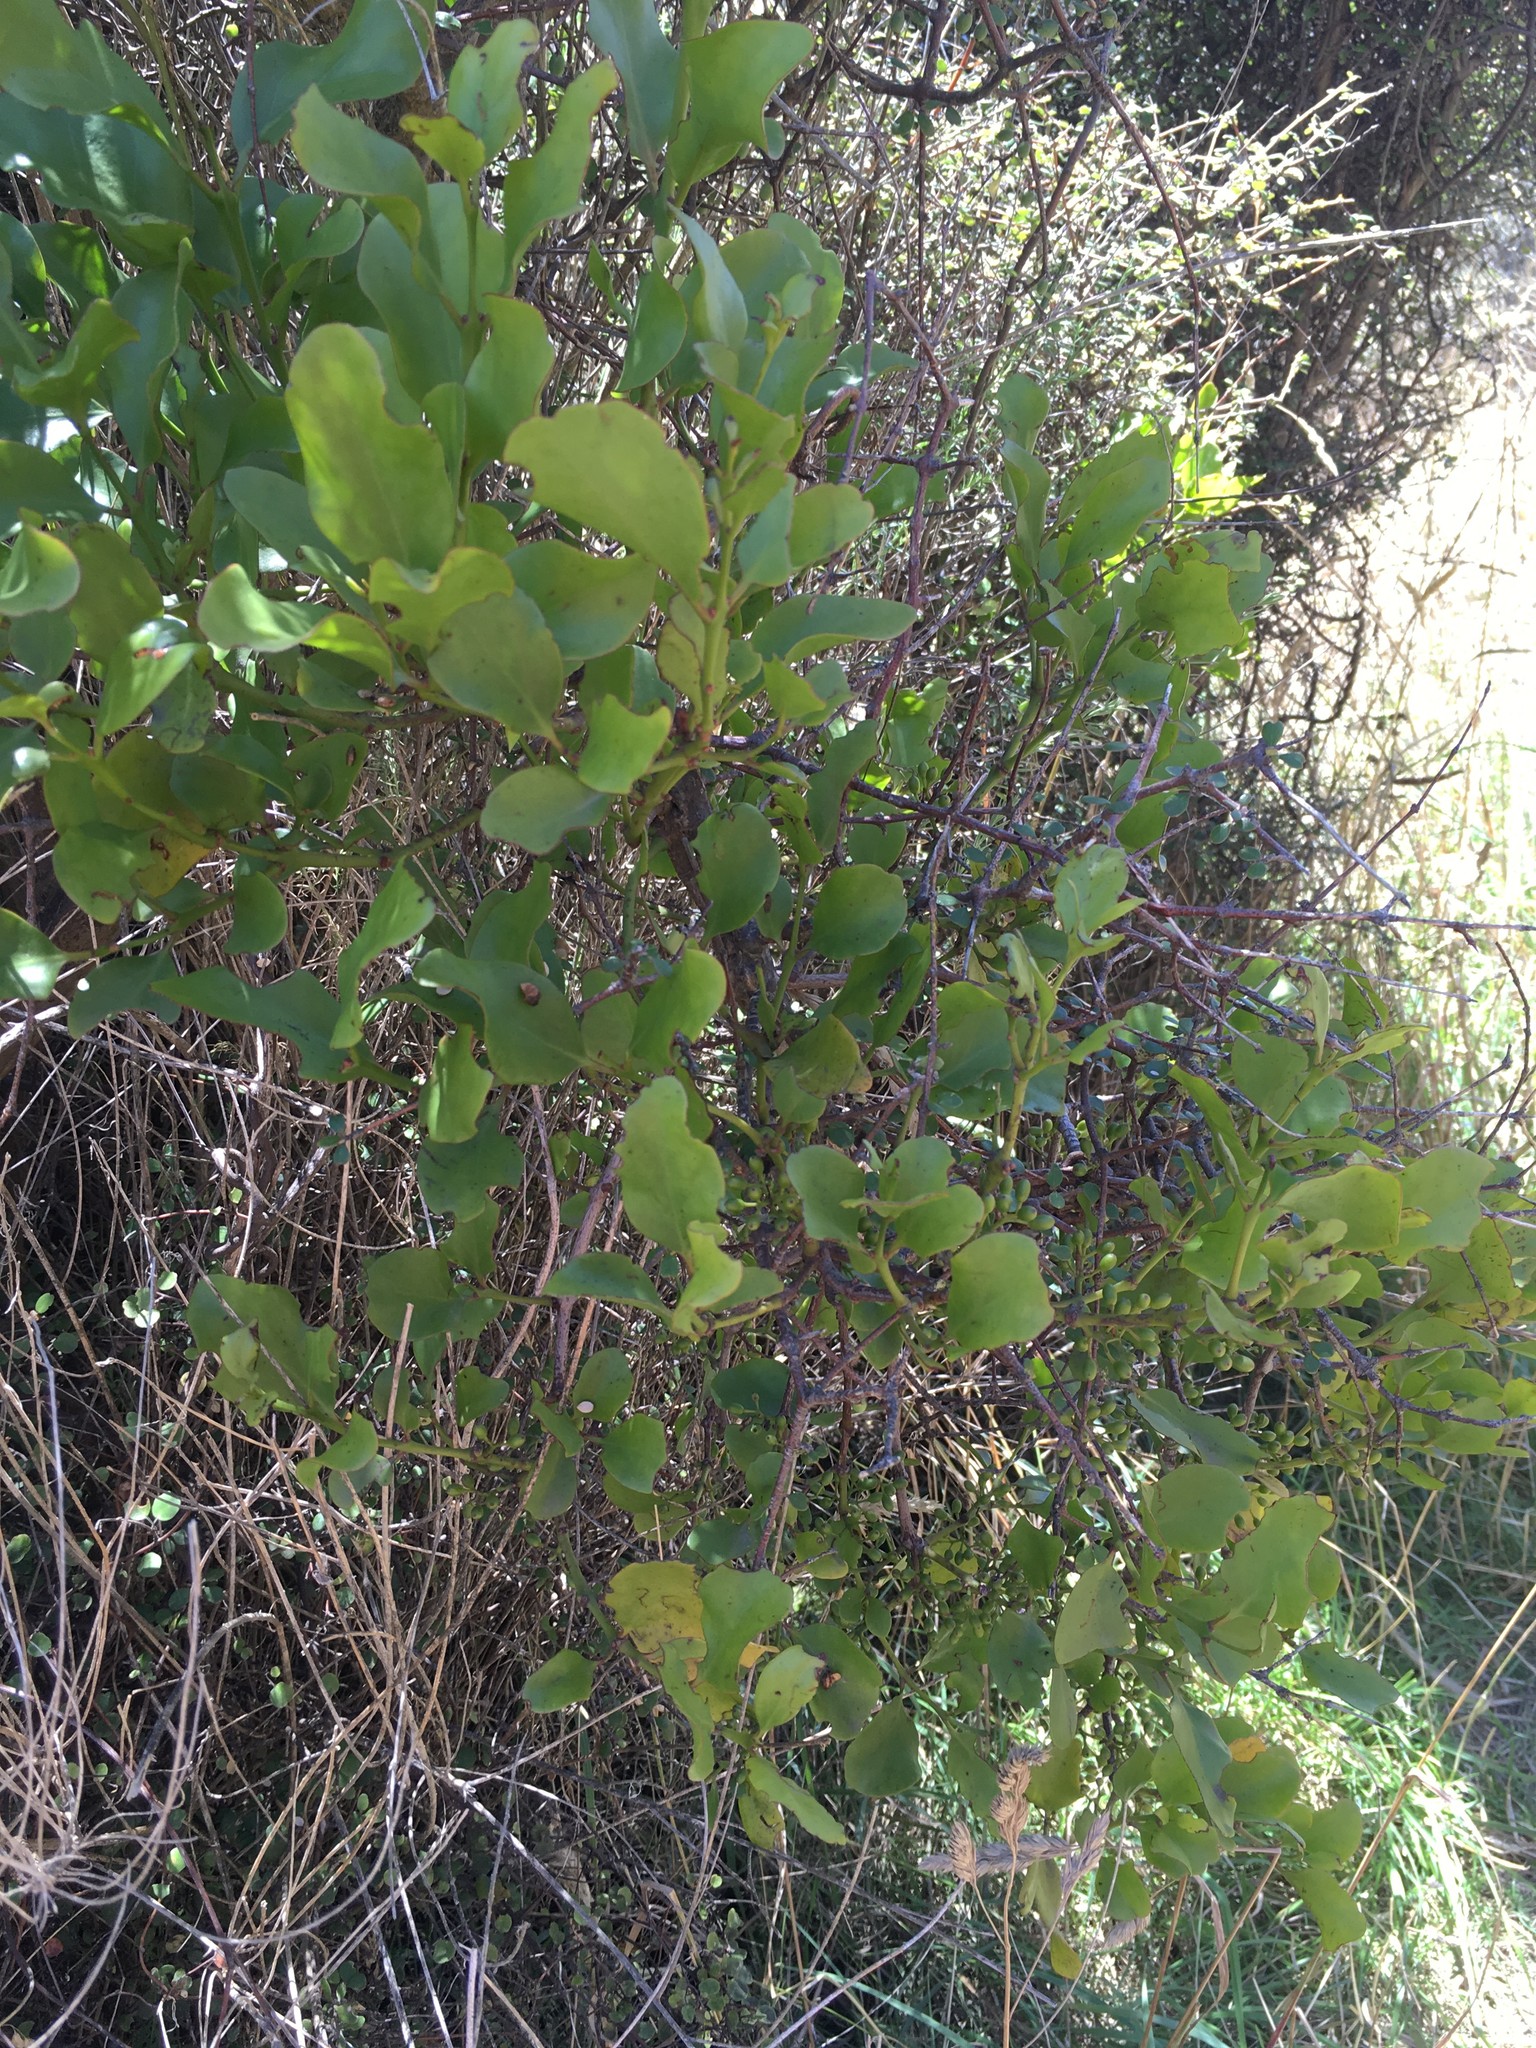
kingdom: Plantae
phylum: Tracheophyta
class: Magnoliopsida
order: Santalales
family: Loranthaceae
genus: Ileostylus
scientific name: Ileostylus micranthus
